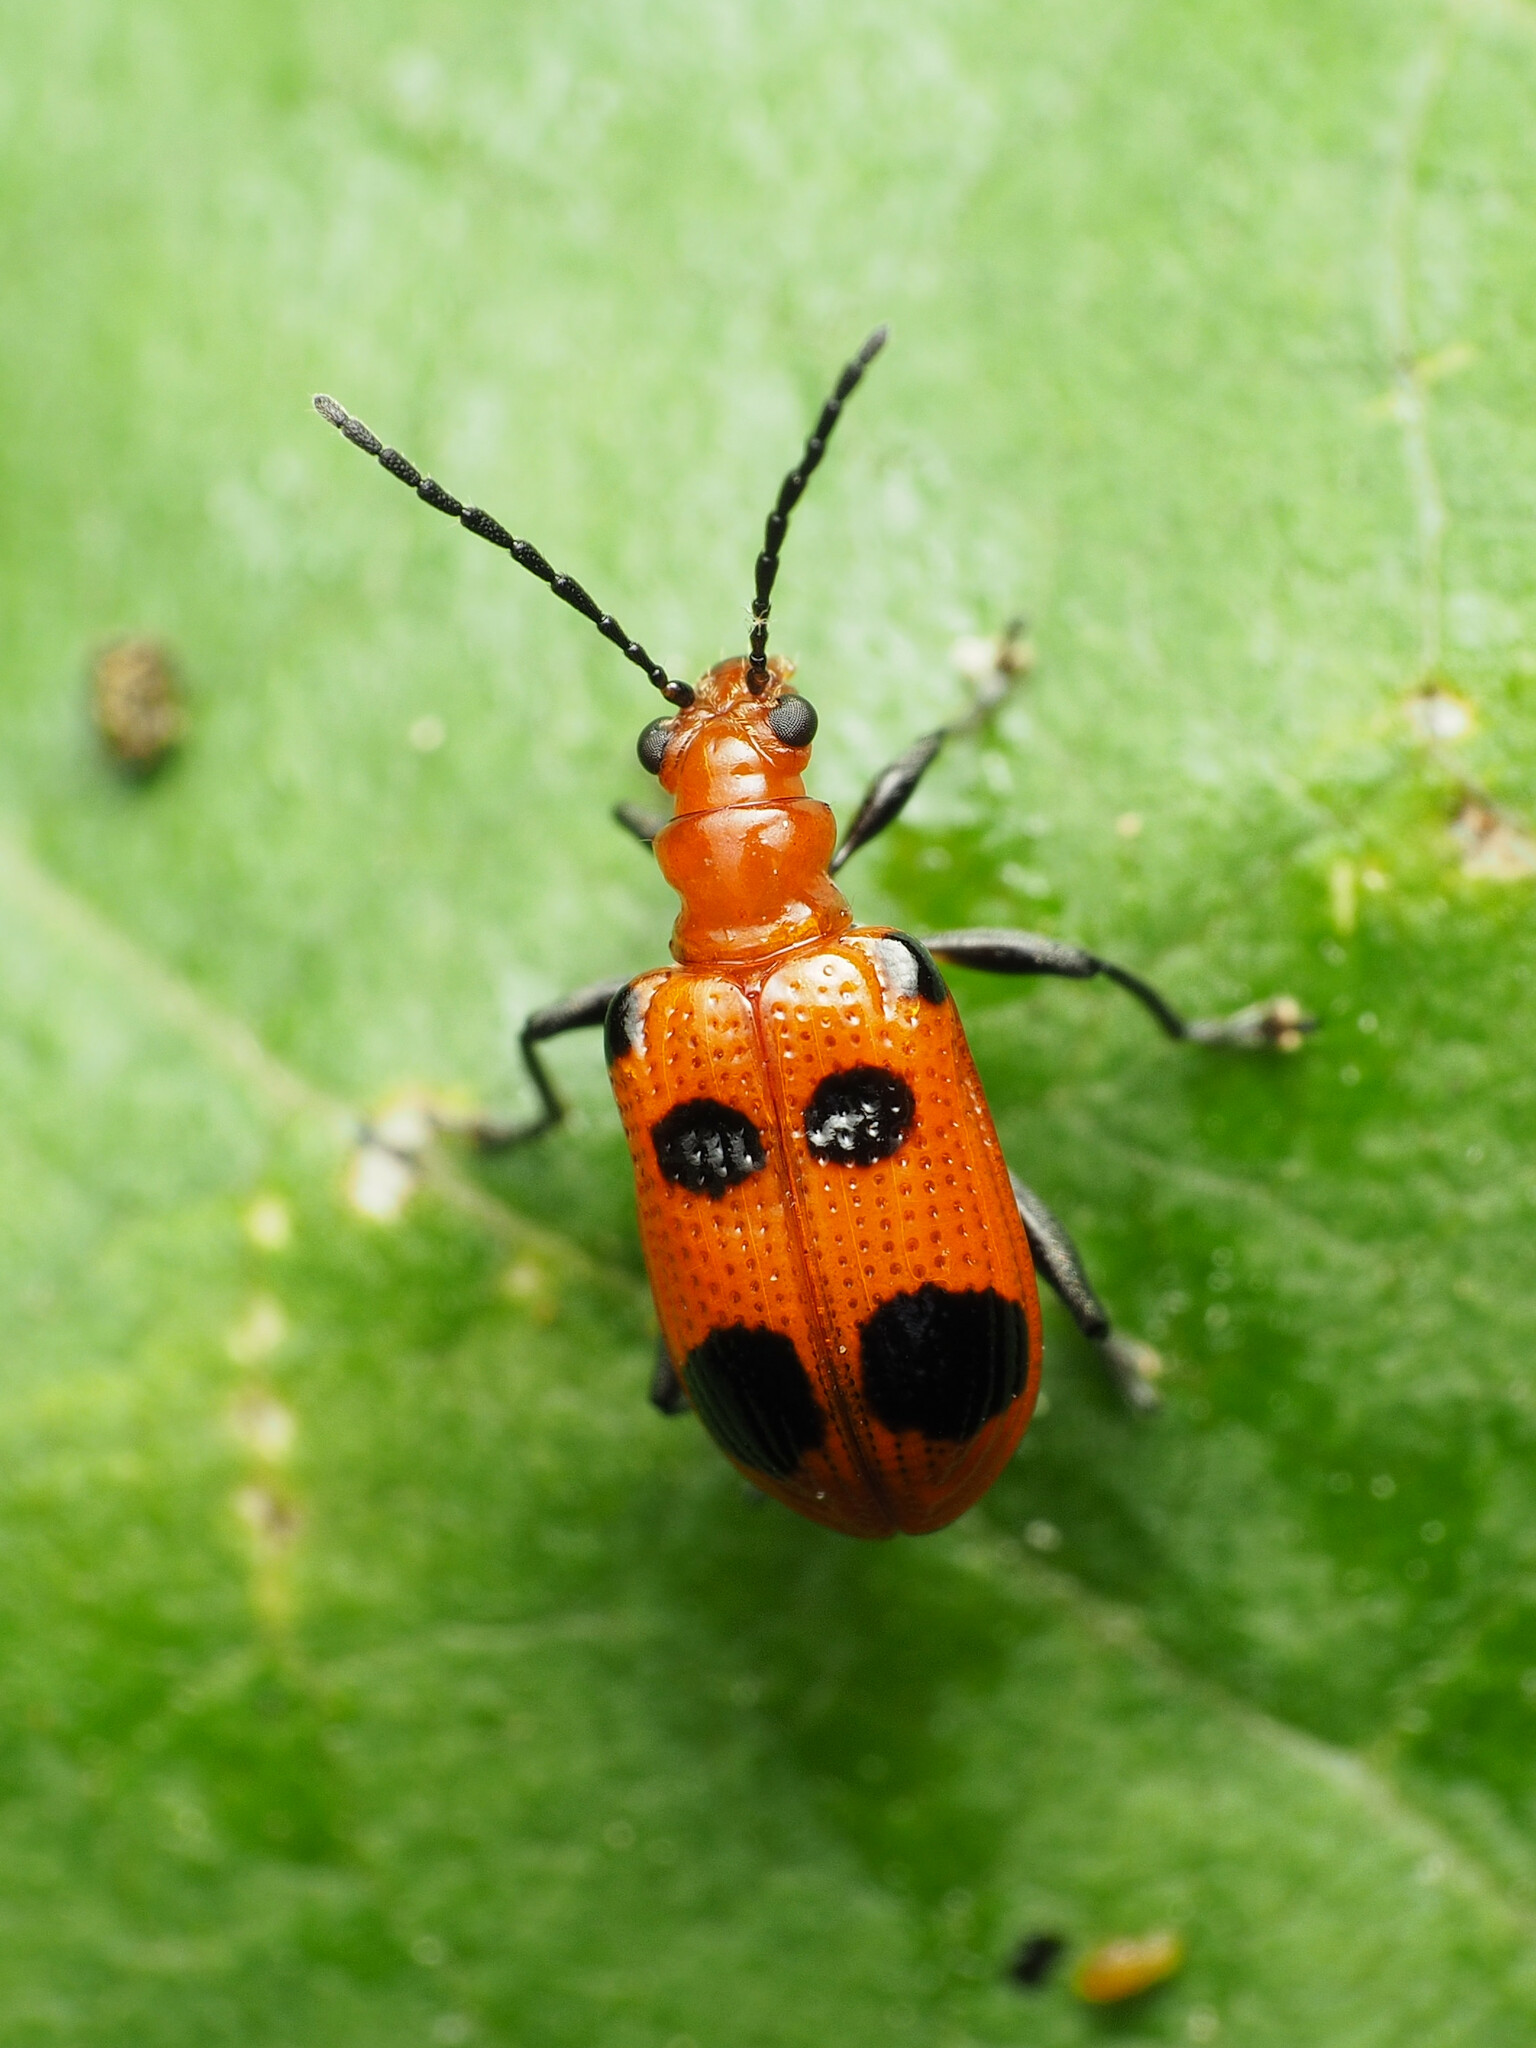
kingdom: Animalia
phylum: Arthropoda
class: Insecta
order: Coleoptera
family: Chrysomelidae
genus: Neolema
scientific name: Neolema sexpunctata
